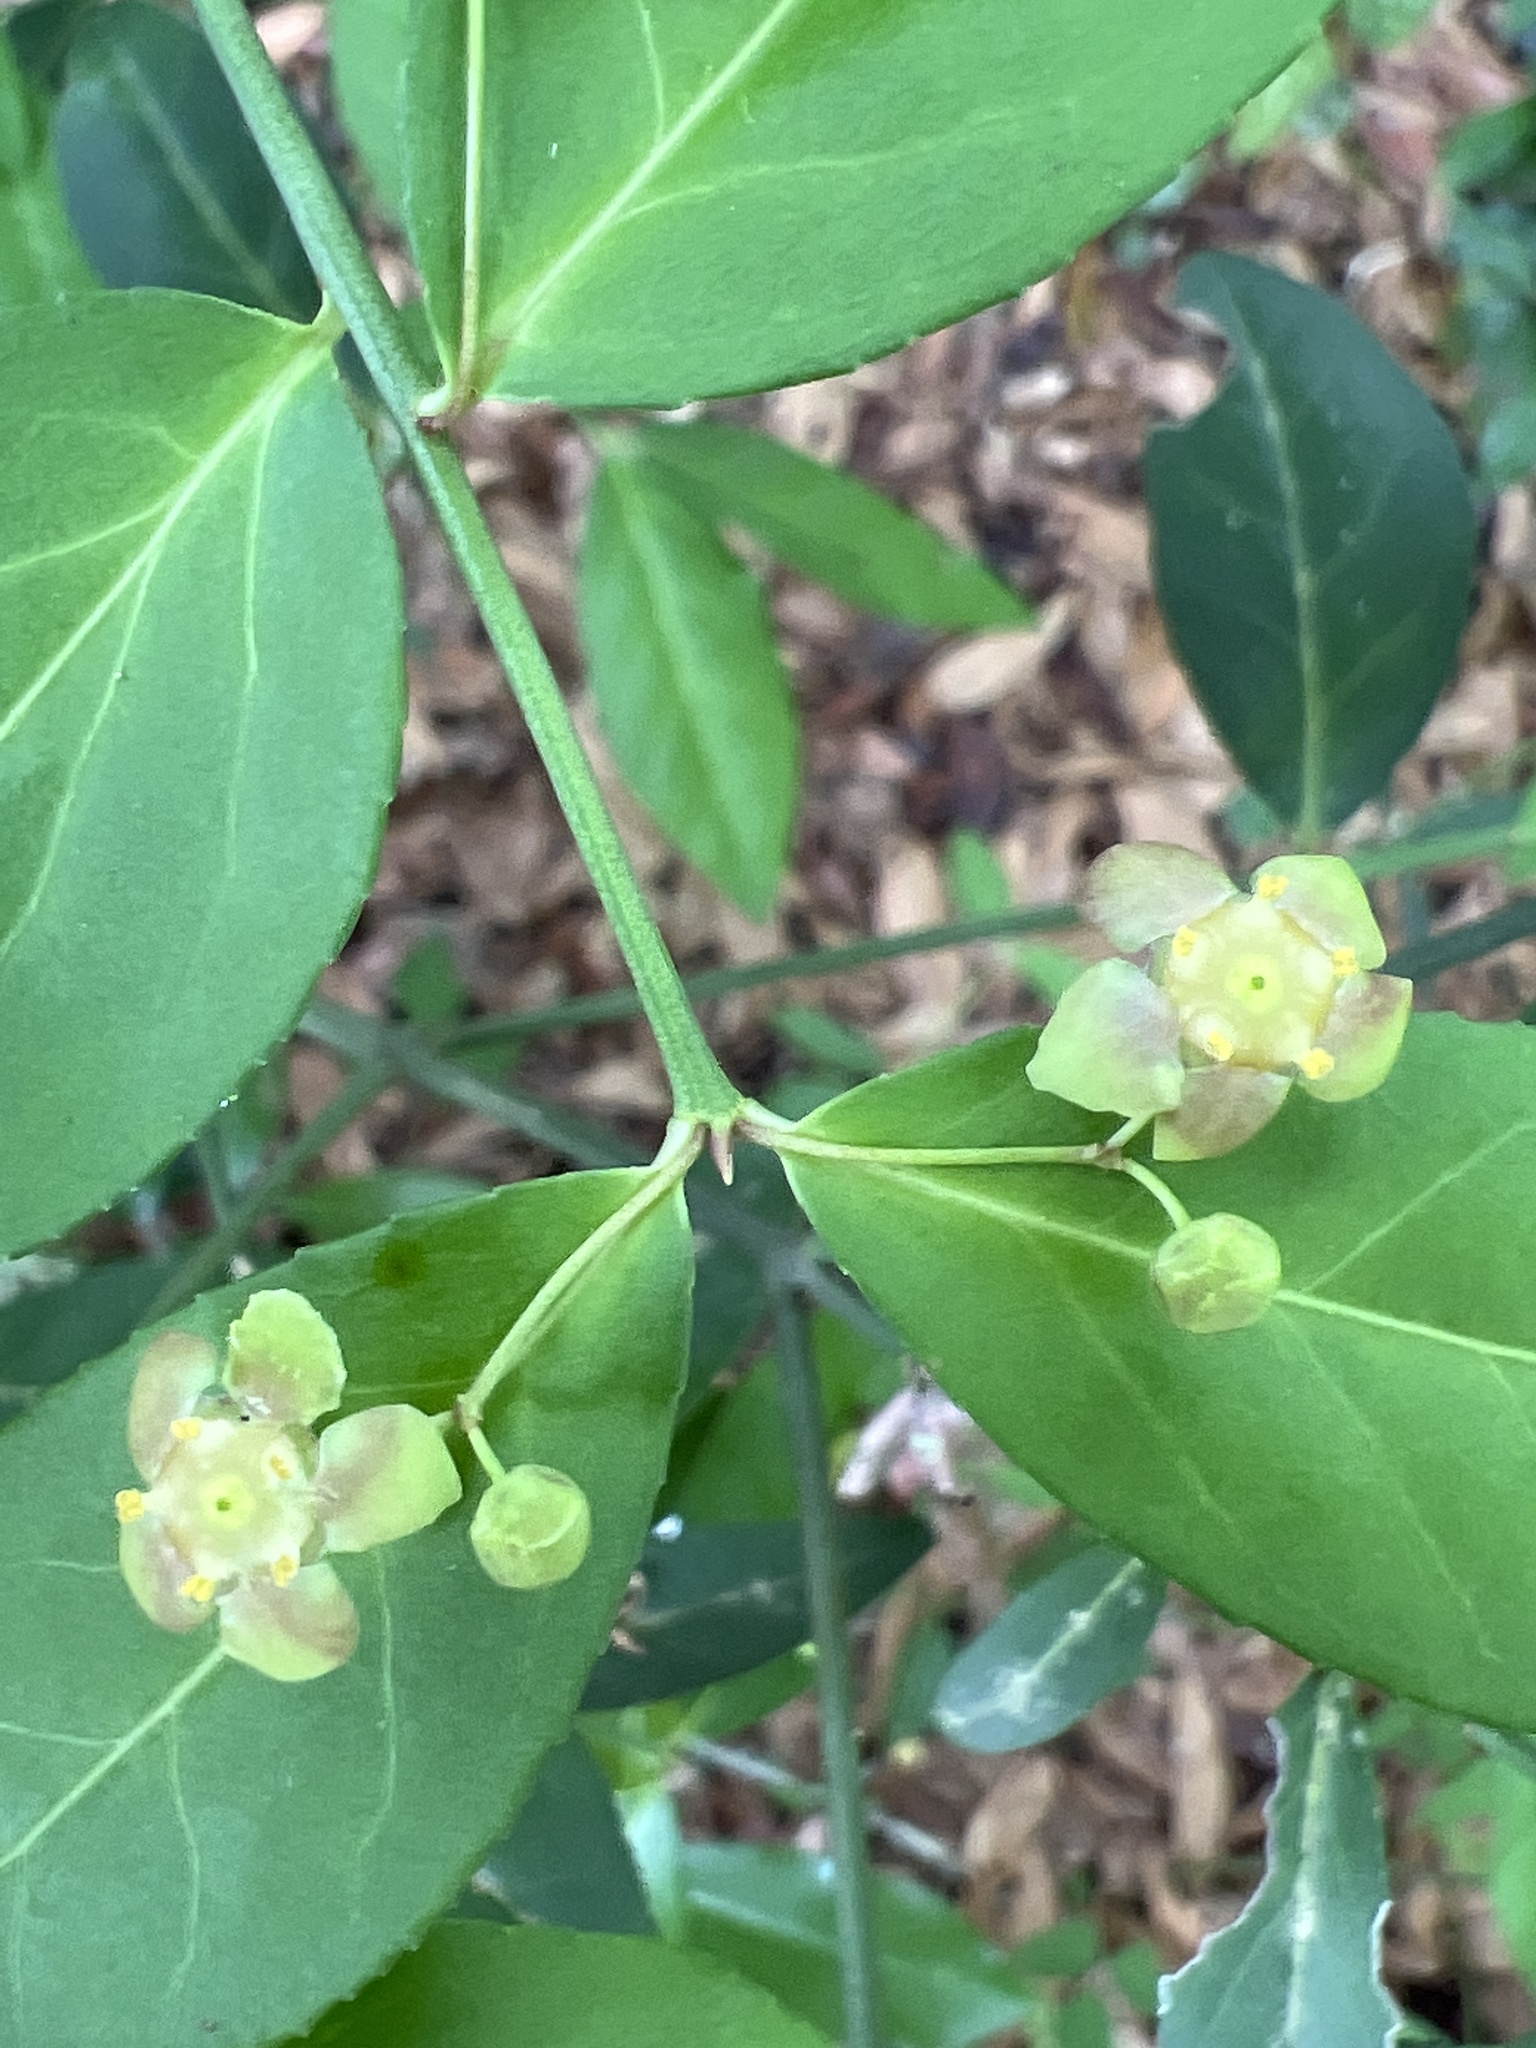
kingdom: Plantae
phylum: Tracheophyta
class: Magnoliopsida
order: Celastrales
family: Celastraceae
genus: Euonymus
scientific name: Euonymus americanus
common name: Bursting-heart
